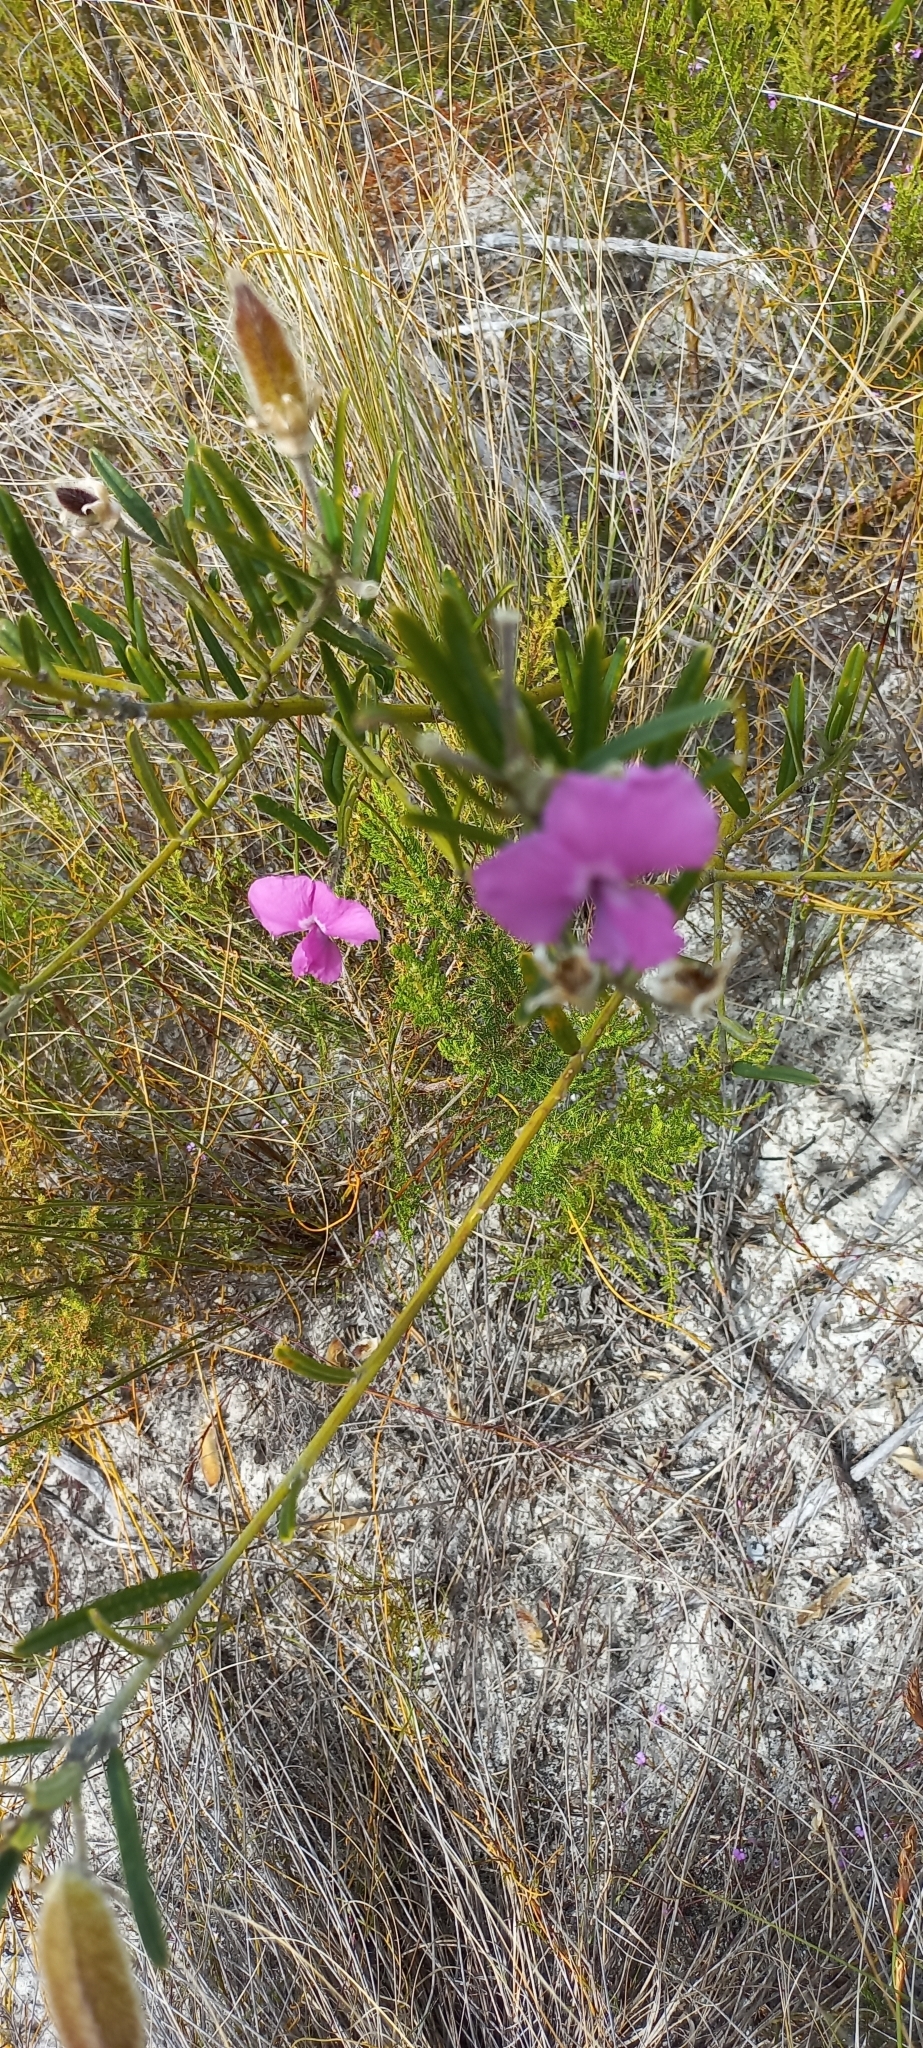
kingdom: Plantae
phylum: Tracheophyta
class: Magnoliopsida
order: Fabales
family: Fabaceae
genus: Podalyria
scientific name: Podalyria oleifolia
